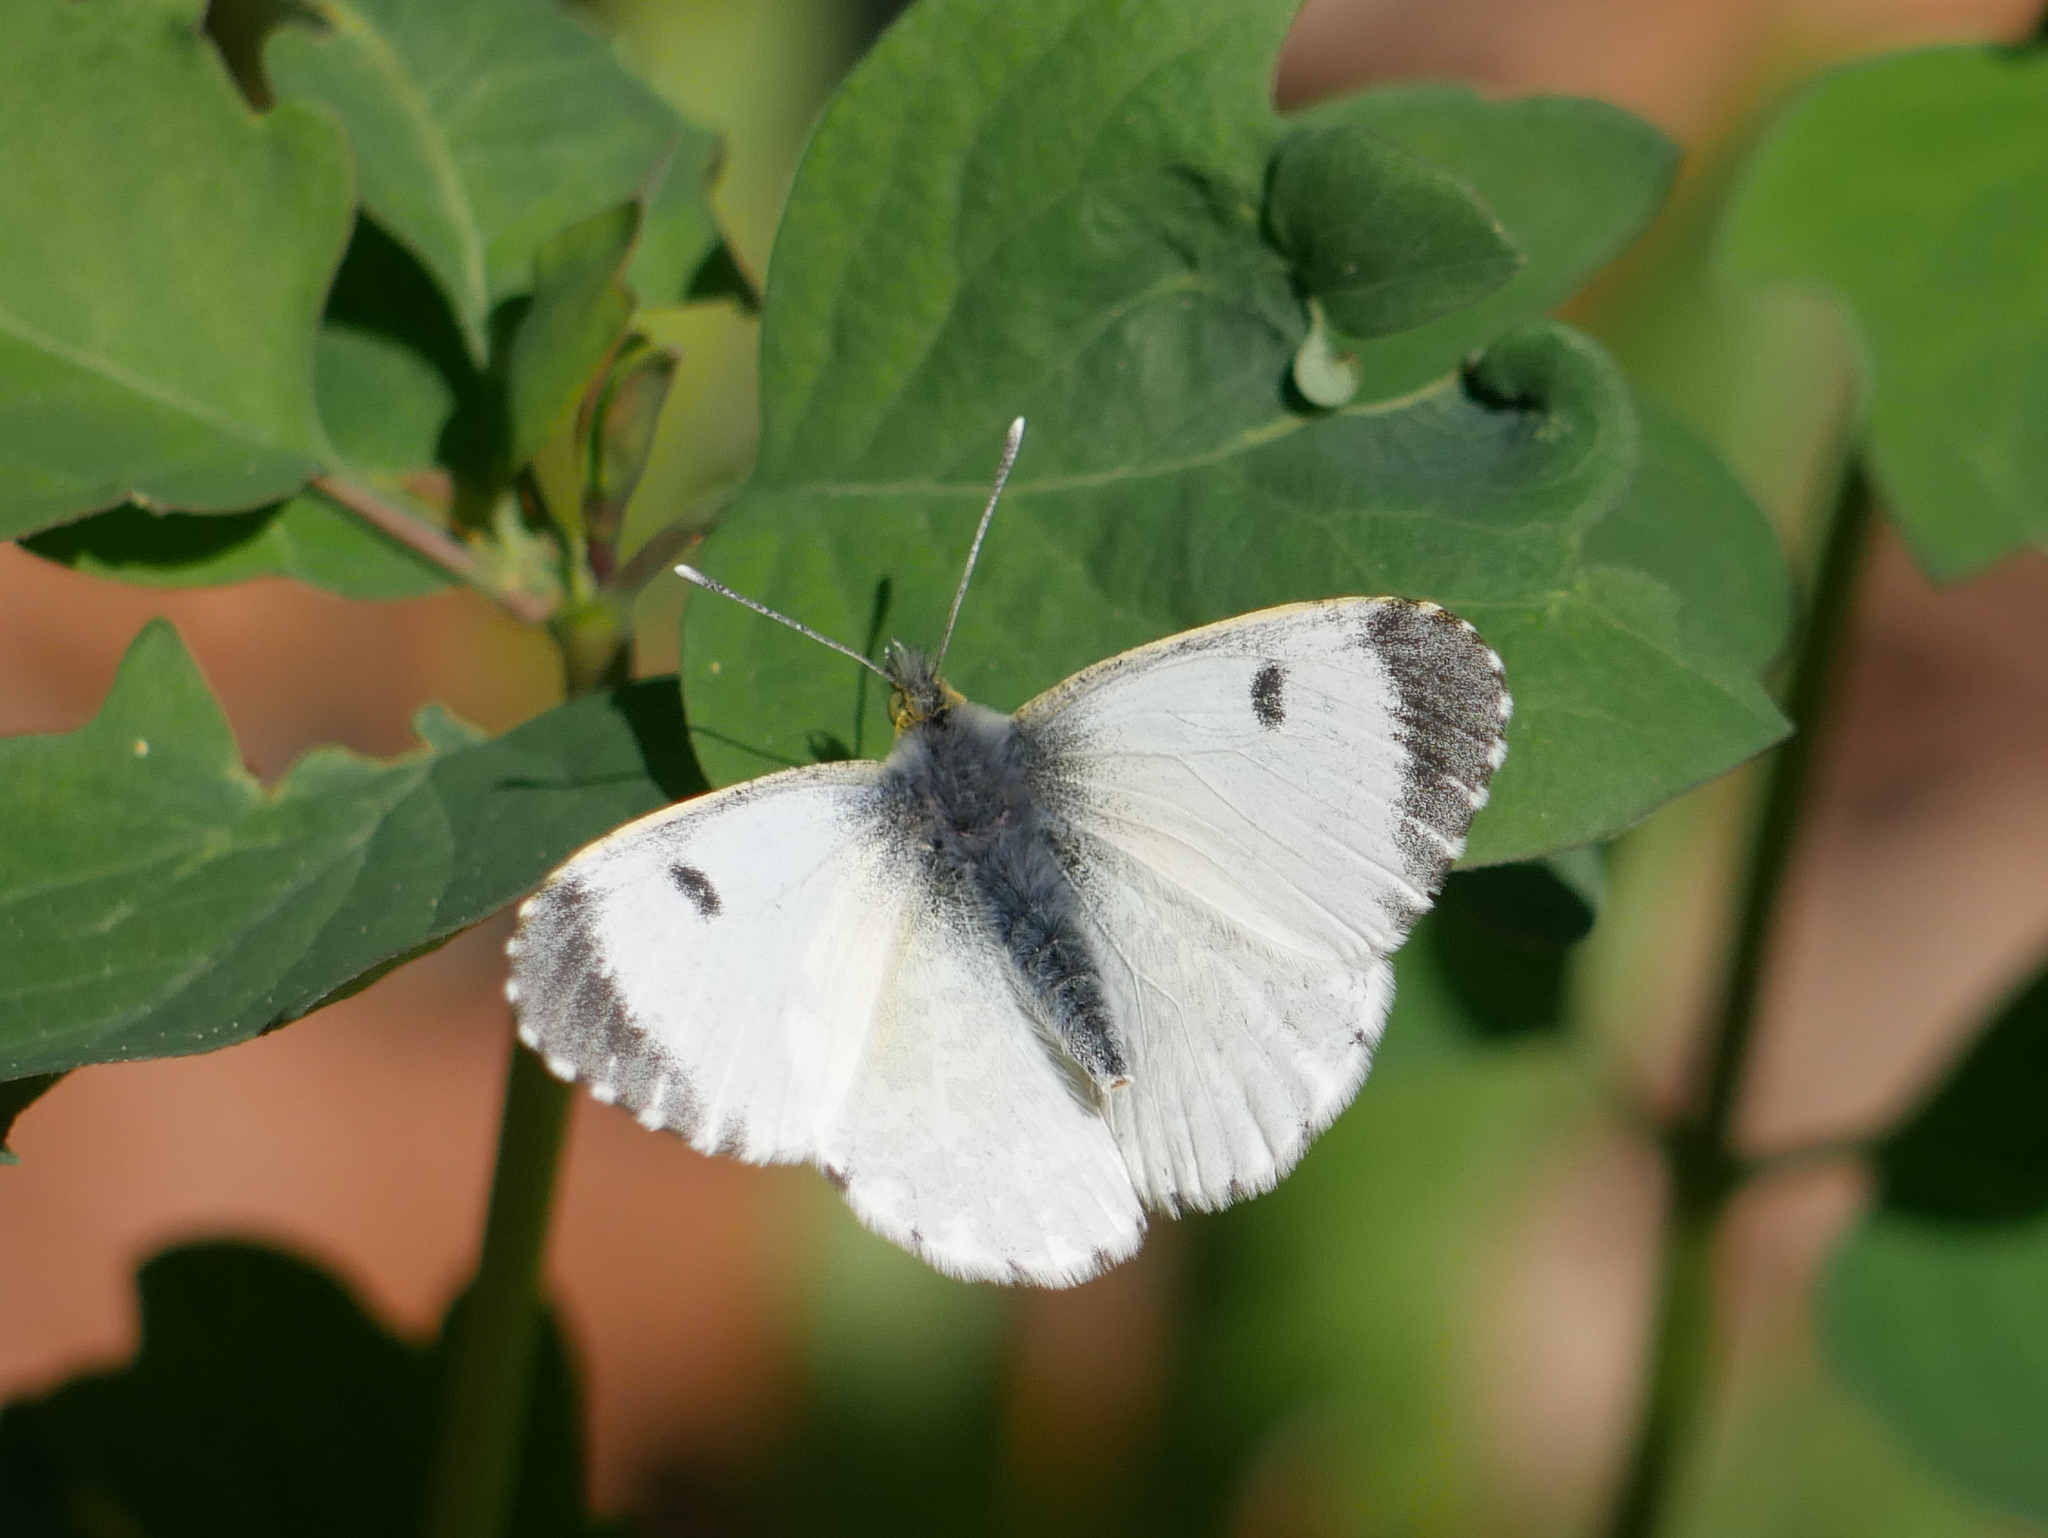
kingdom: Animalia
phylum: Arthropoda
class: Insecta
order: Lepidoptera
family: Pieridae
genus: Anthocharis
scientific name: Anthocharis cardamines
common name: Orange-tip
